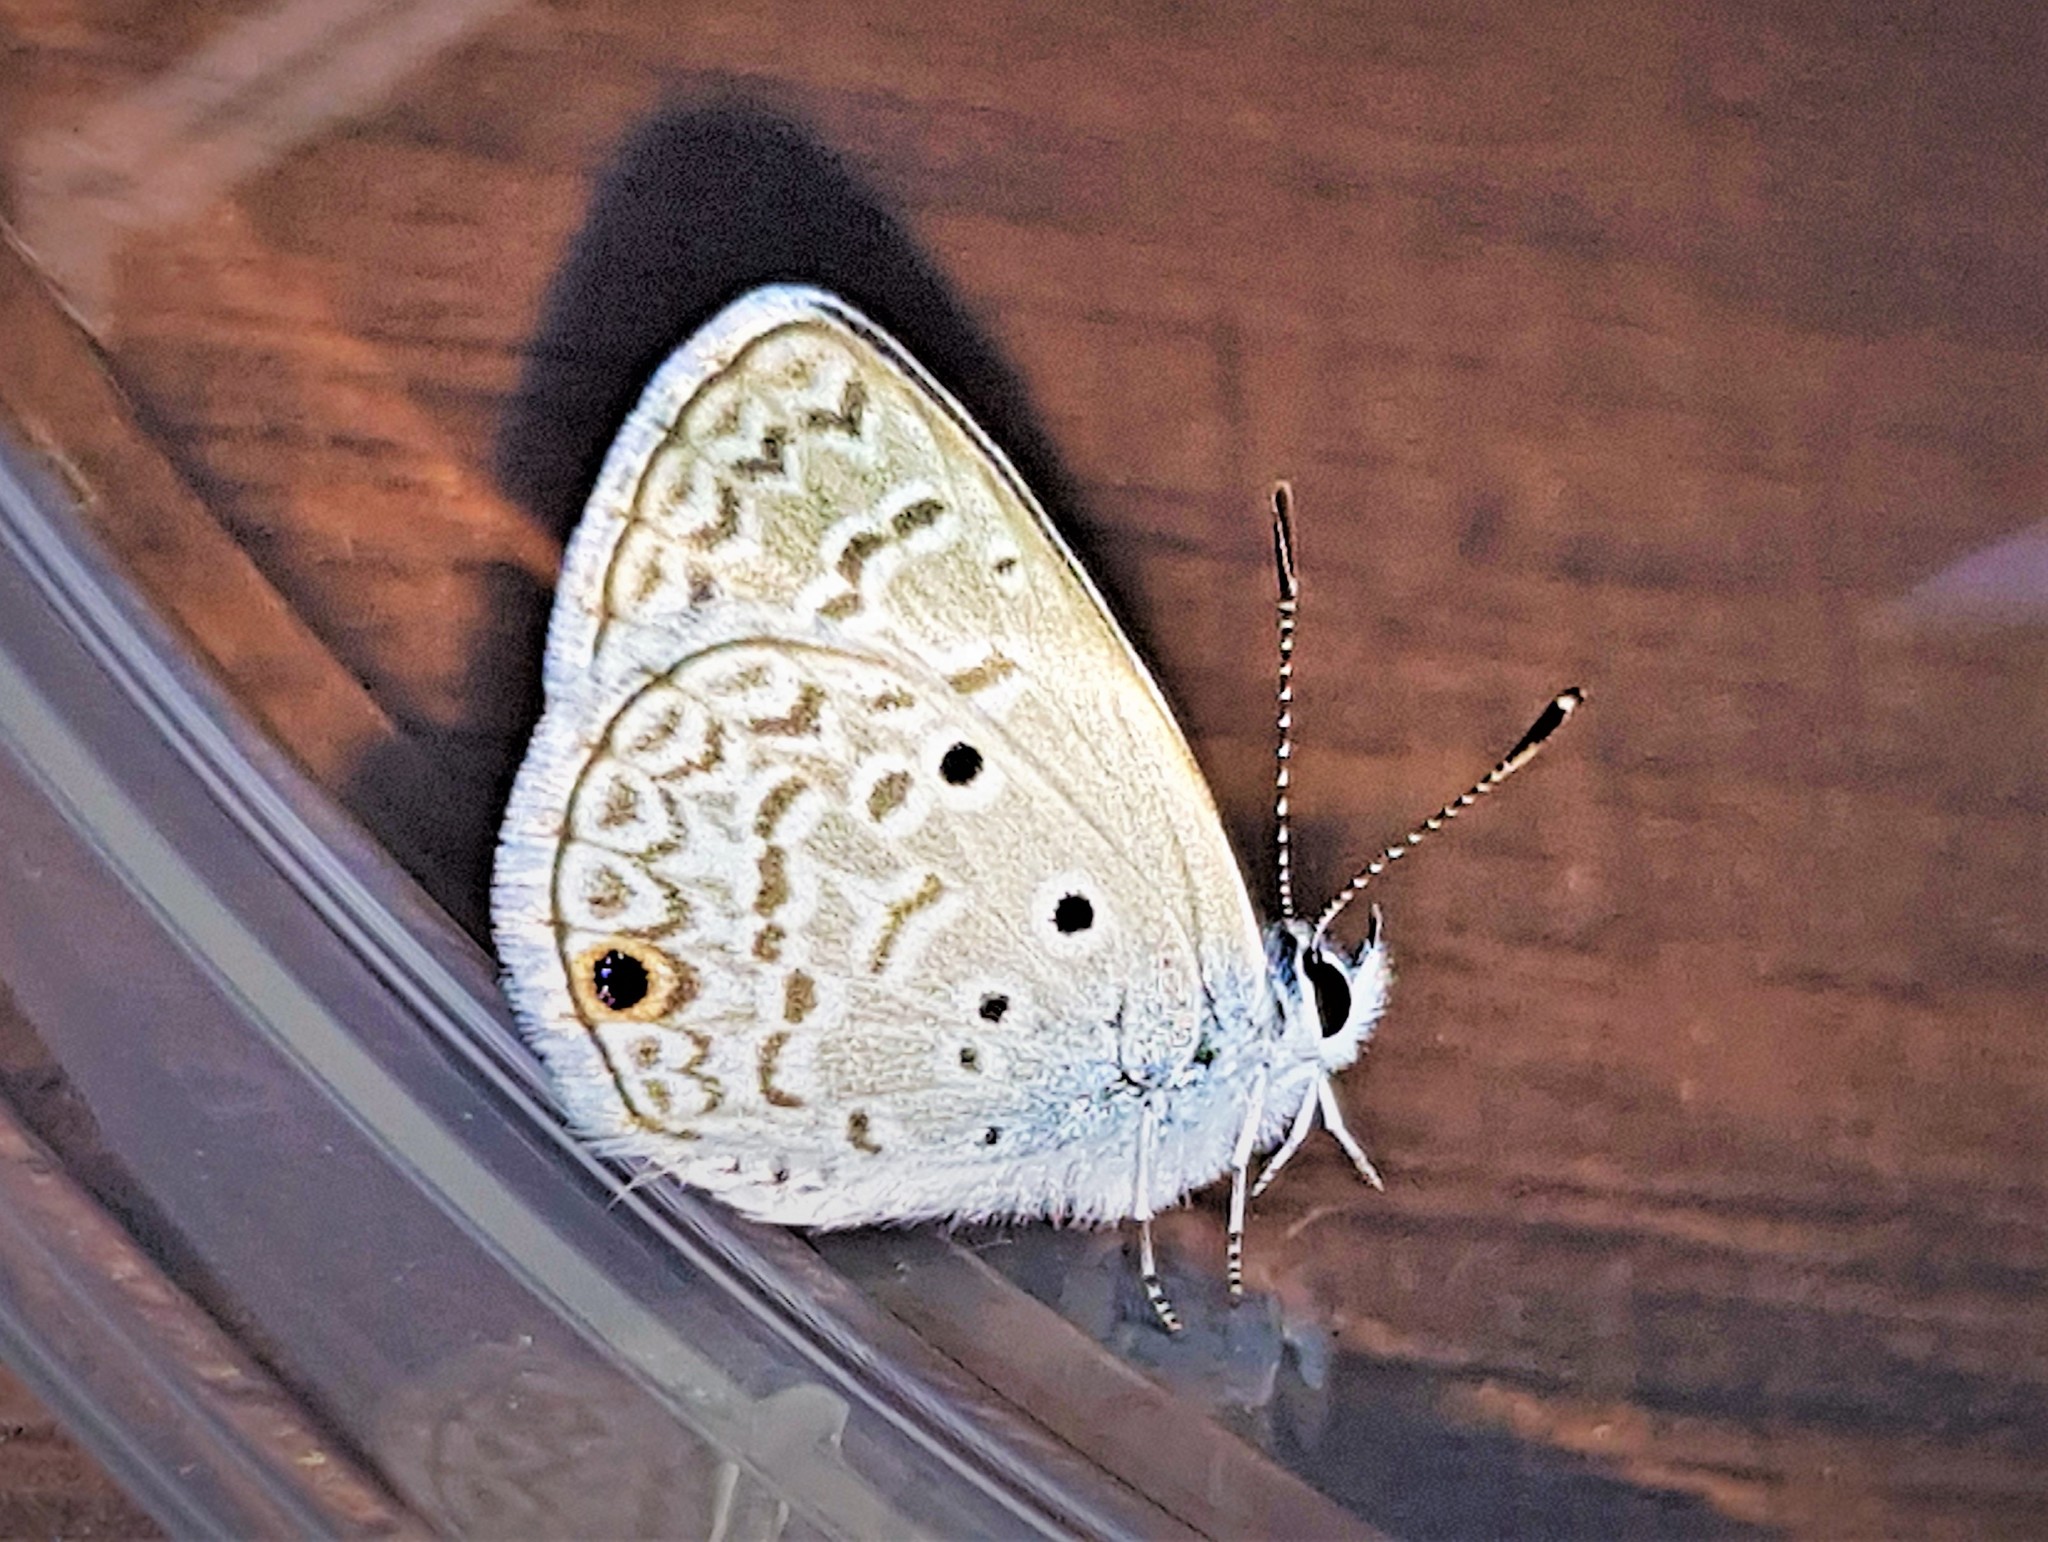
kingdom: Animalia
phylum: Arthropoda
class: Insecta
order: Lepidoptera
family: Lycaenidae
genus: Hemiargus
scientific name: Hemiargus hanno
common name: Common blue
